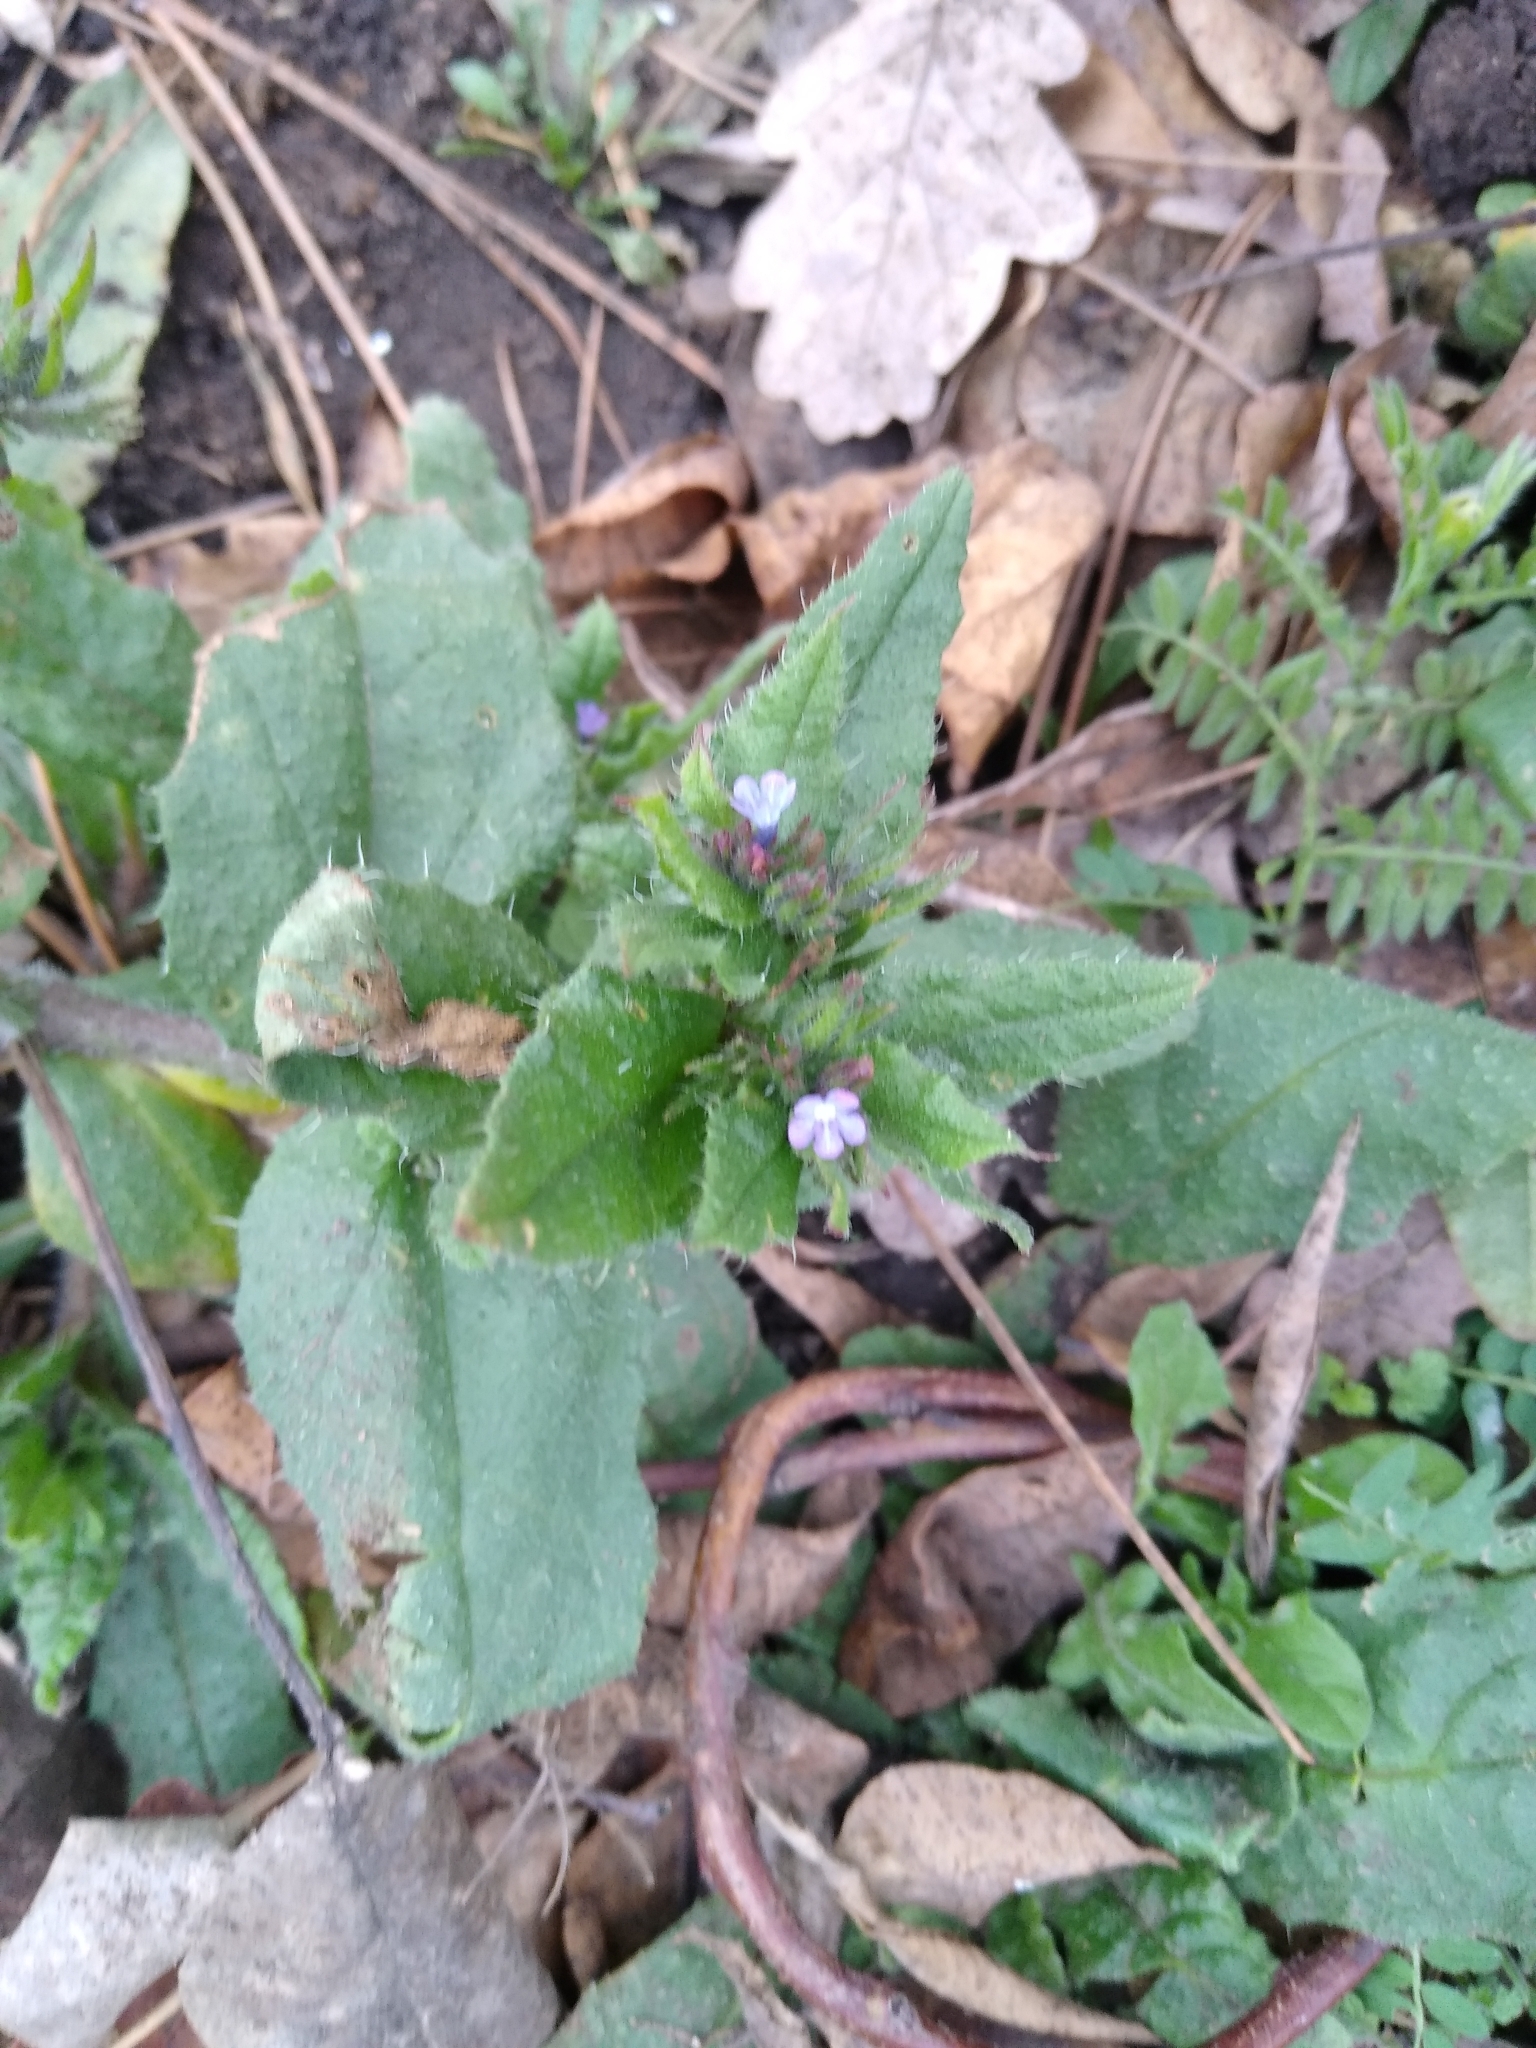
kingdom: Plantae
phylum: Tracheophyta
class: Magnoliopsida
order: Boraginales
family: Boraginaceae
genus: Lycopsis
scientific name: Lycopsis arvensis
